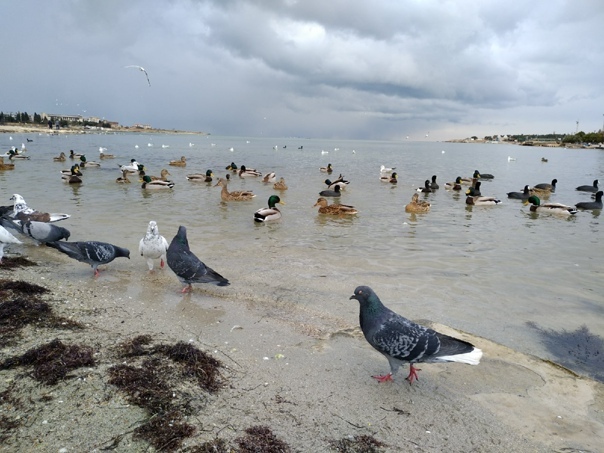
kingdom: Animalia
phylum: Chordata
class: Aves
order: Columbiformes
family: Columbidae
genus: Columba
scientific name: Columba livia
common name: Rock pigeon
